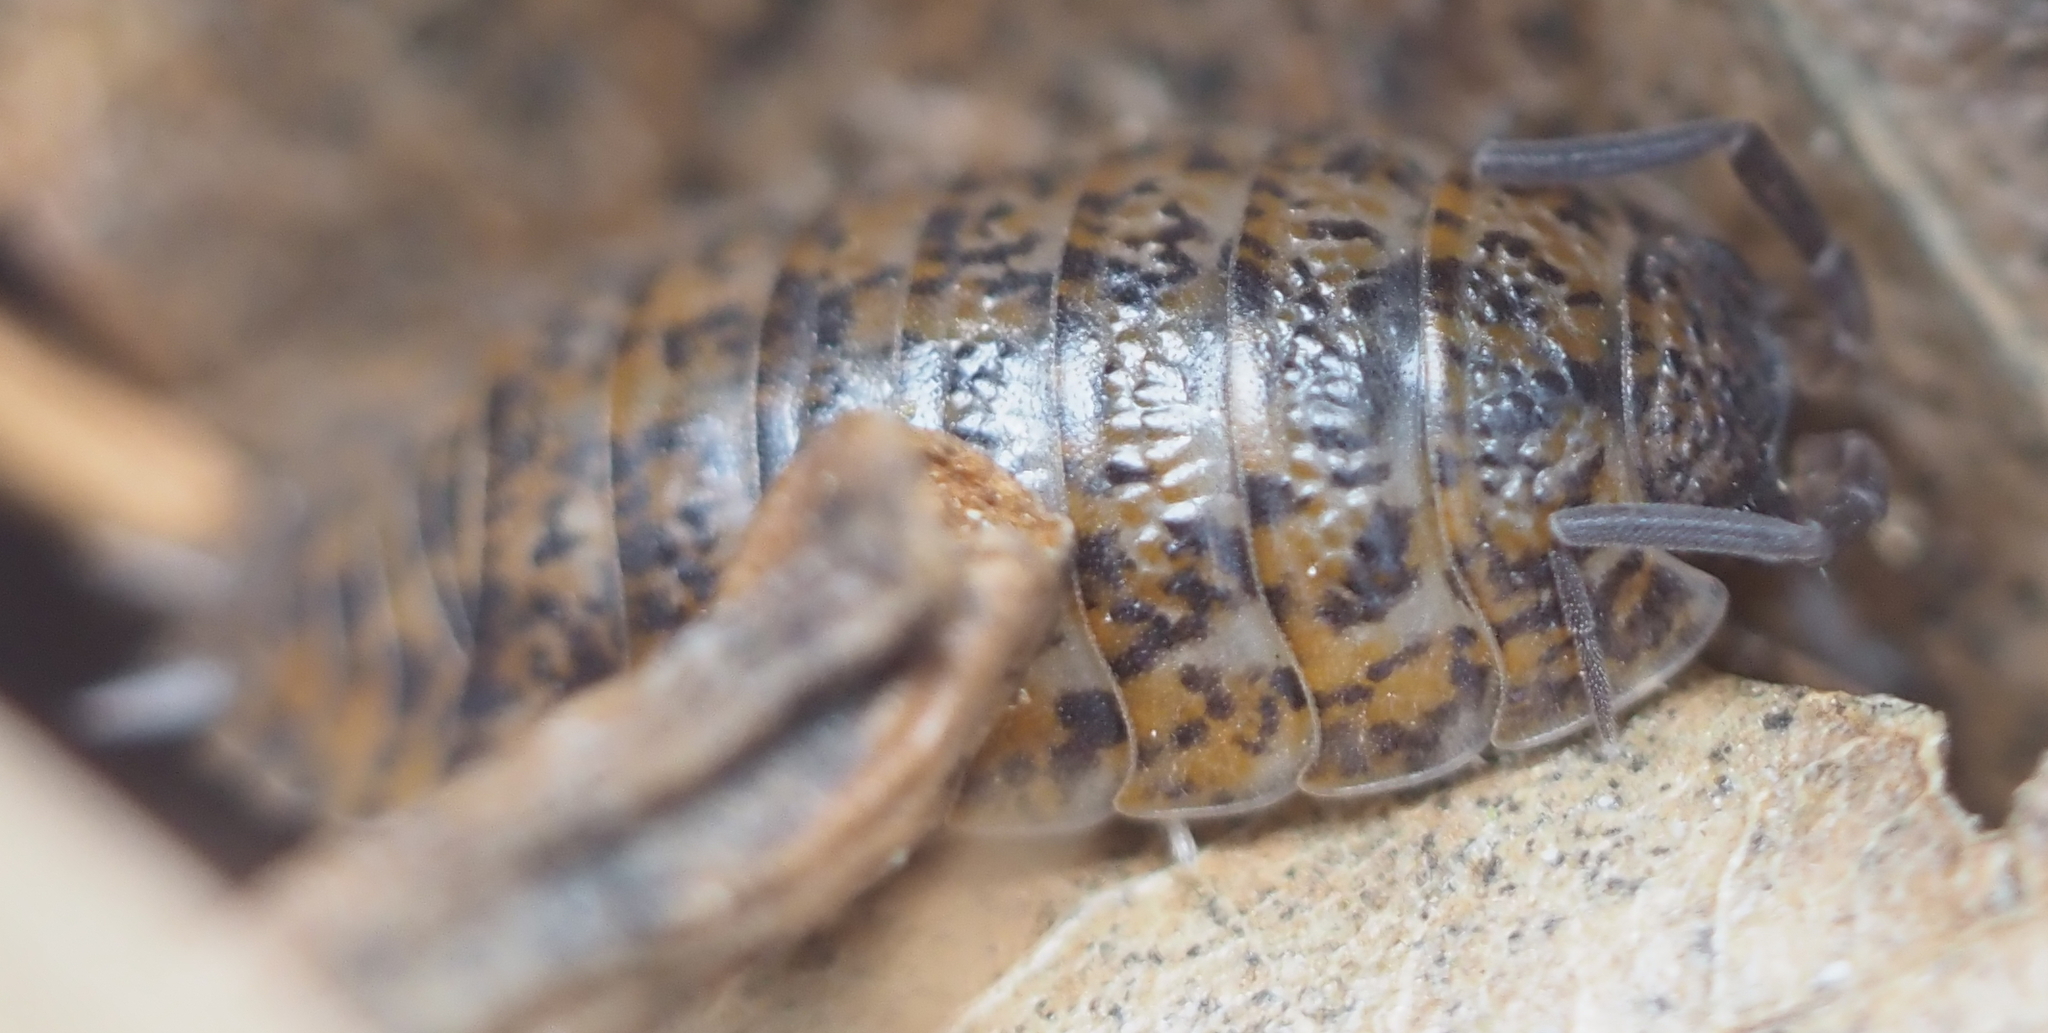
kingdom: Animalia
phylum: Arthropoda
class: Malacostraca
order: Isopoda
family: Trachelipodidae
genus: Trachelipus
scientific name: Trachelipus rathkii
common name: Isopod
